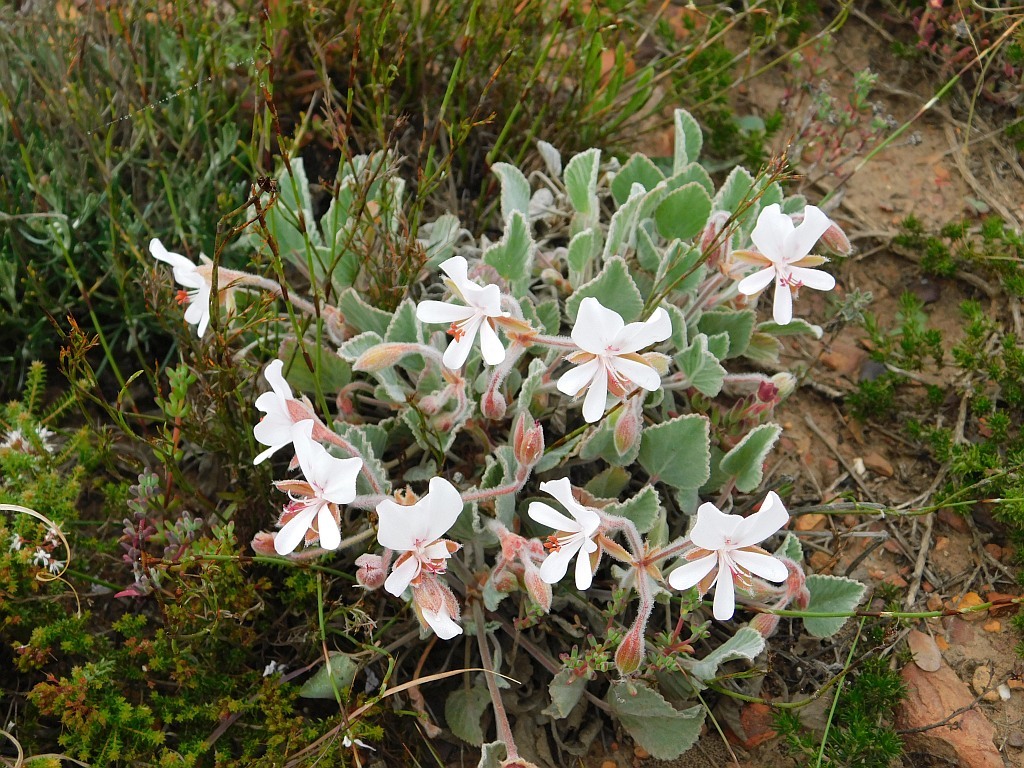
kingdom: Plantae
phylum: Tracheophyta
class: Magnoliopsida
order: Geraniales
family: Geraniaceae
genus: Pelargonium
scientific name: Pelargonium ovale
